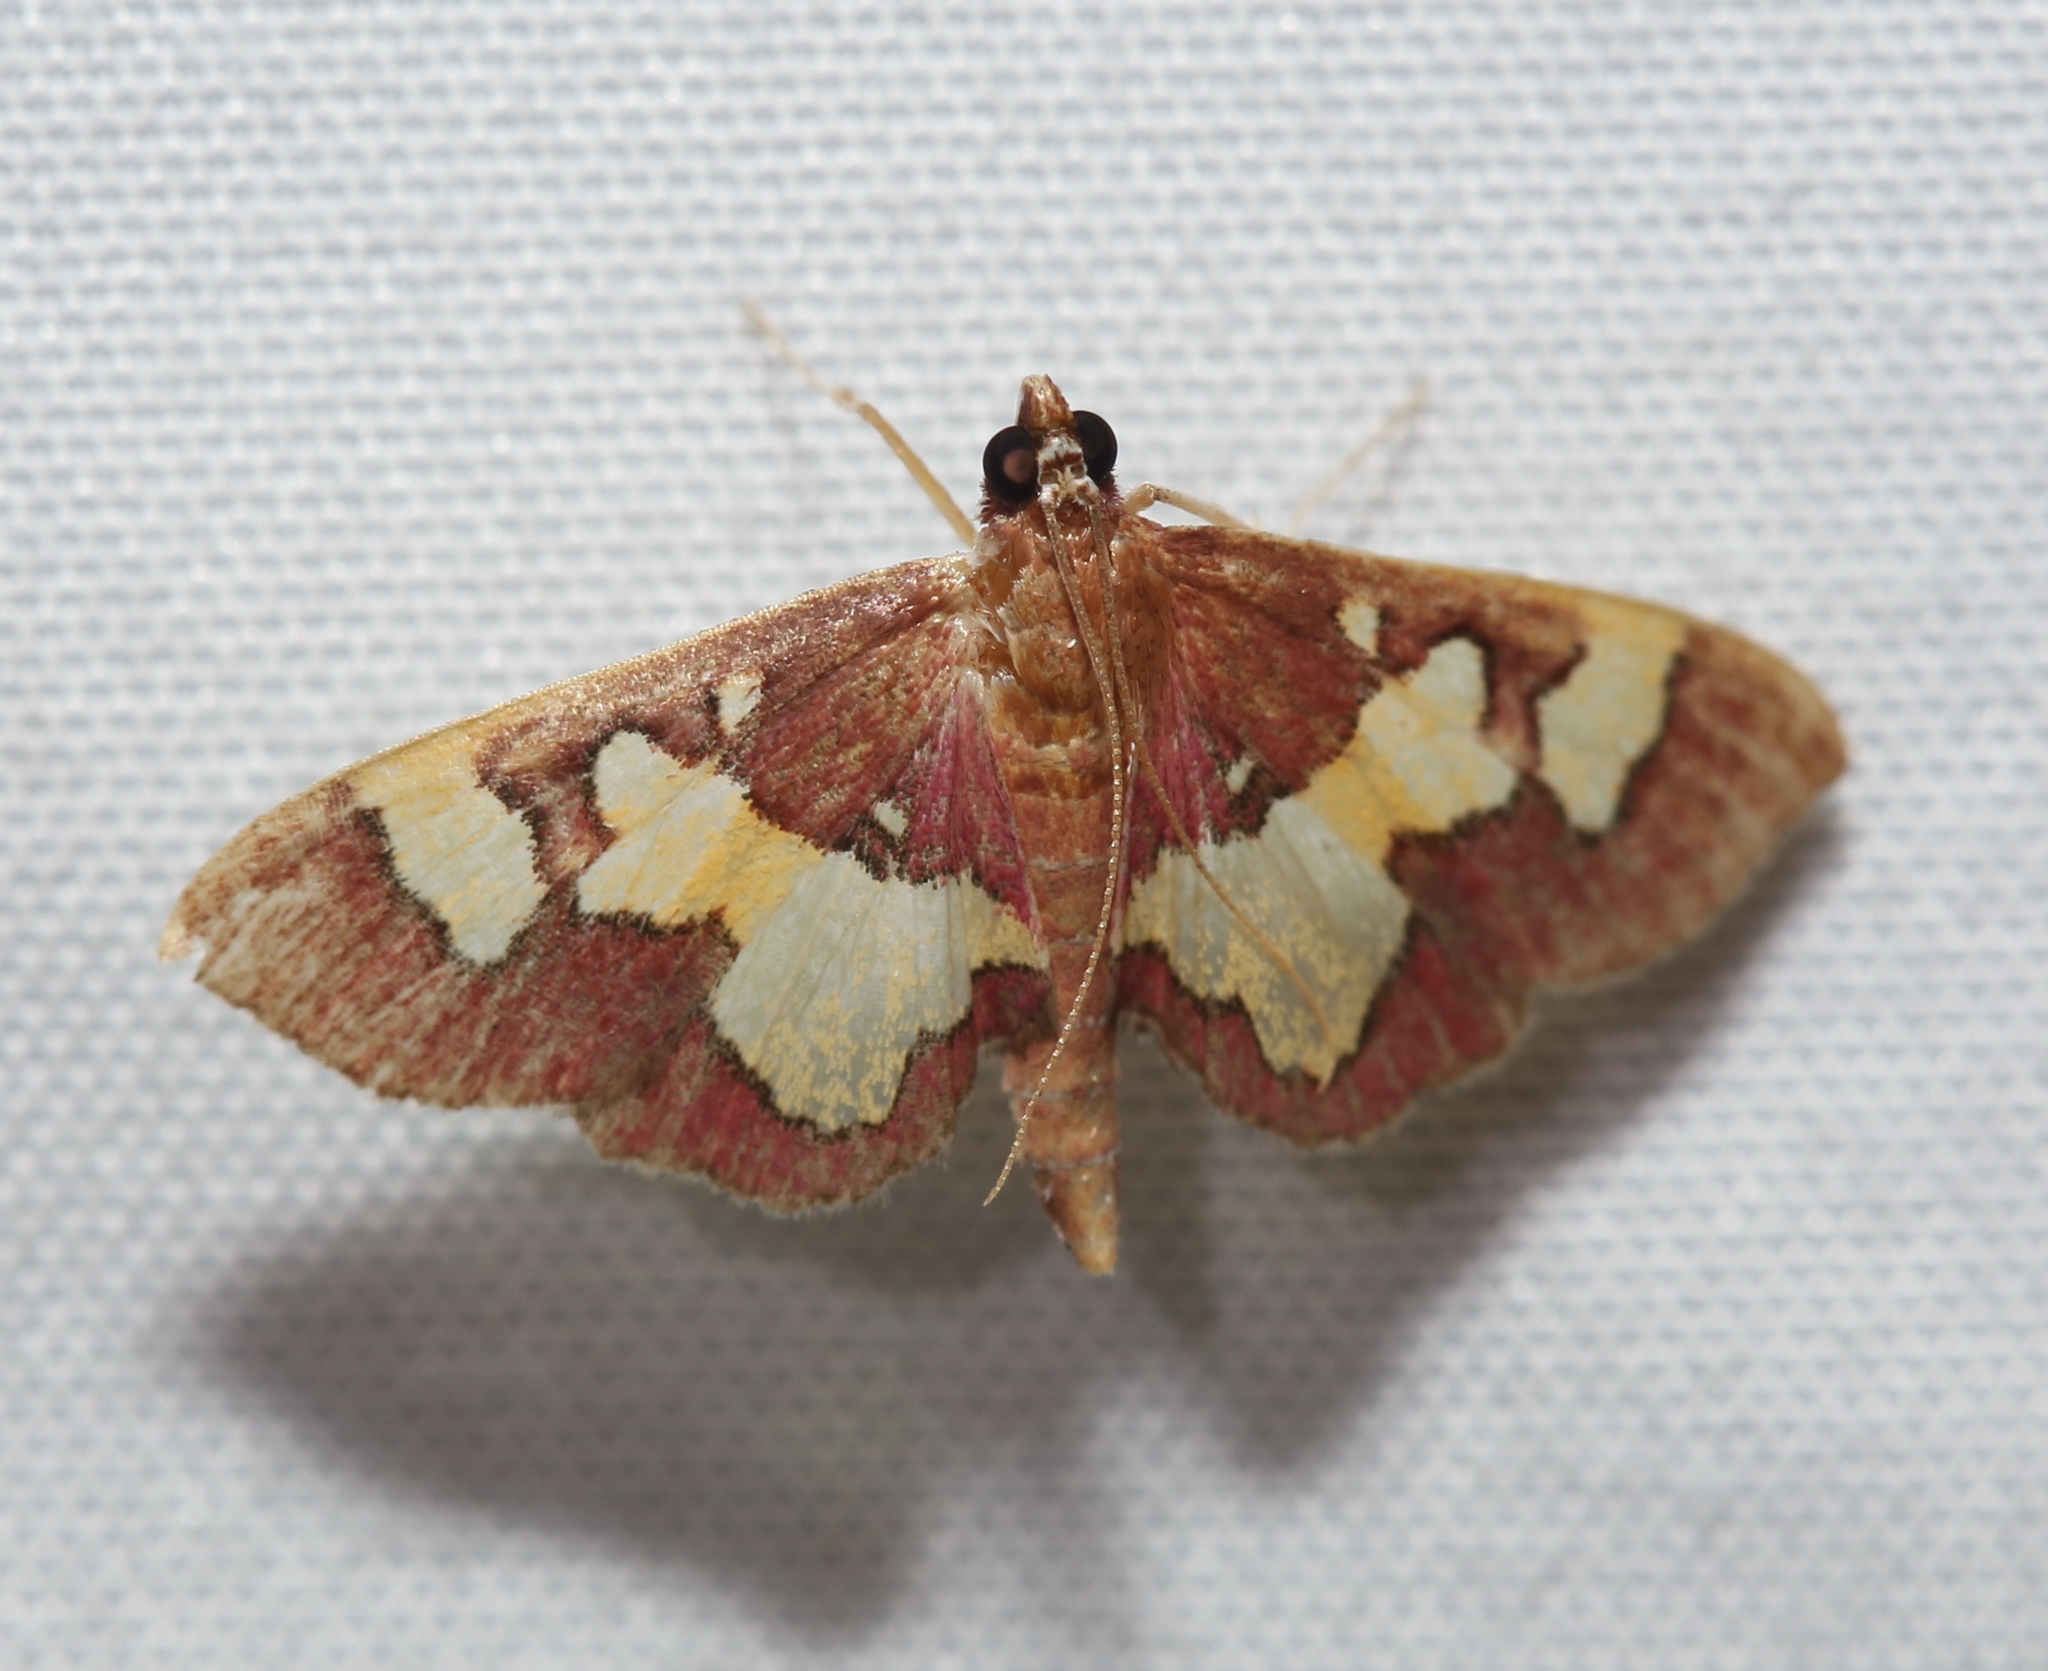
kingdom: Animalia
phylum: Arthropoda
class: Insecta
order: Lepidoptera
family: Crambidae
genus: Colomychus
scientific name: Colomychus talis
